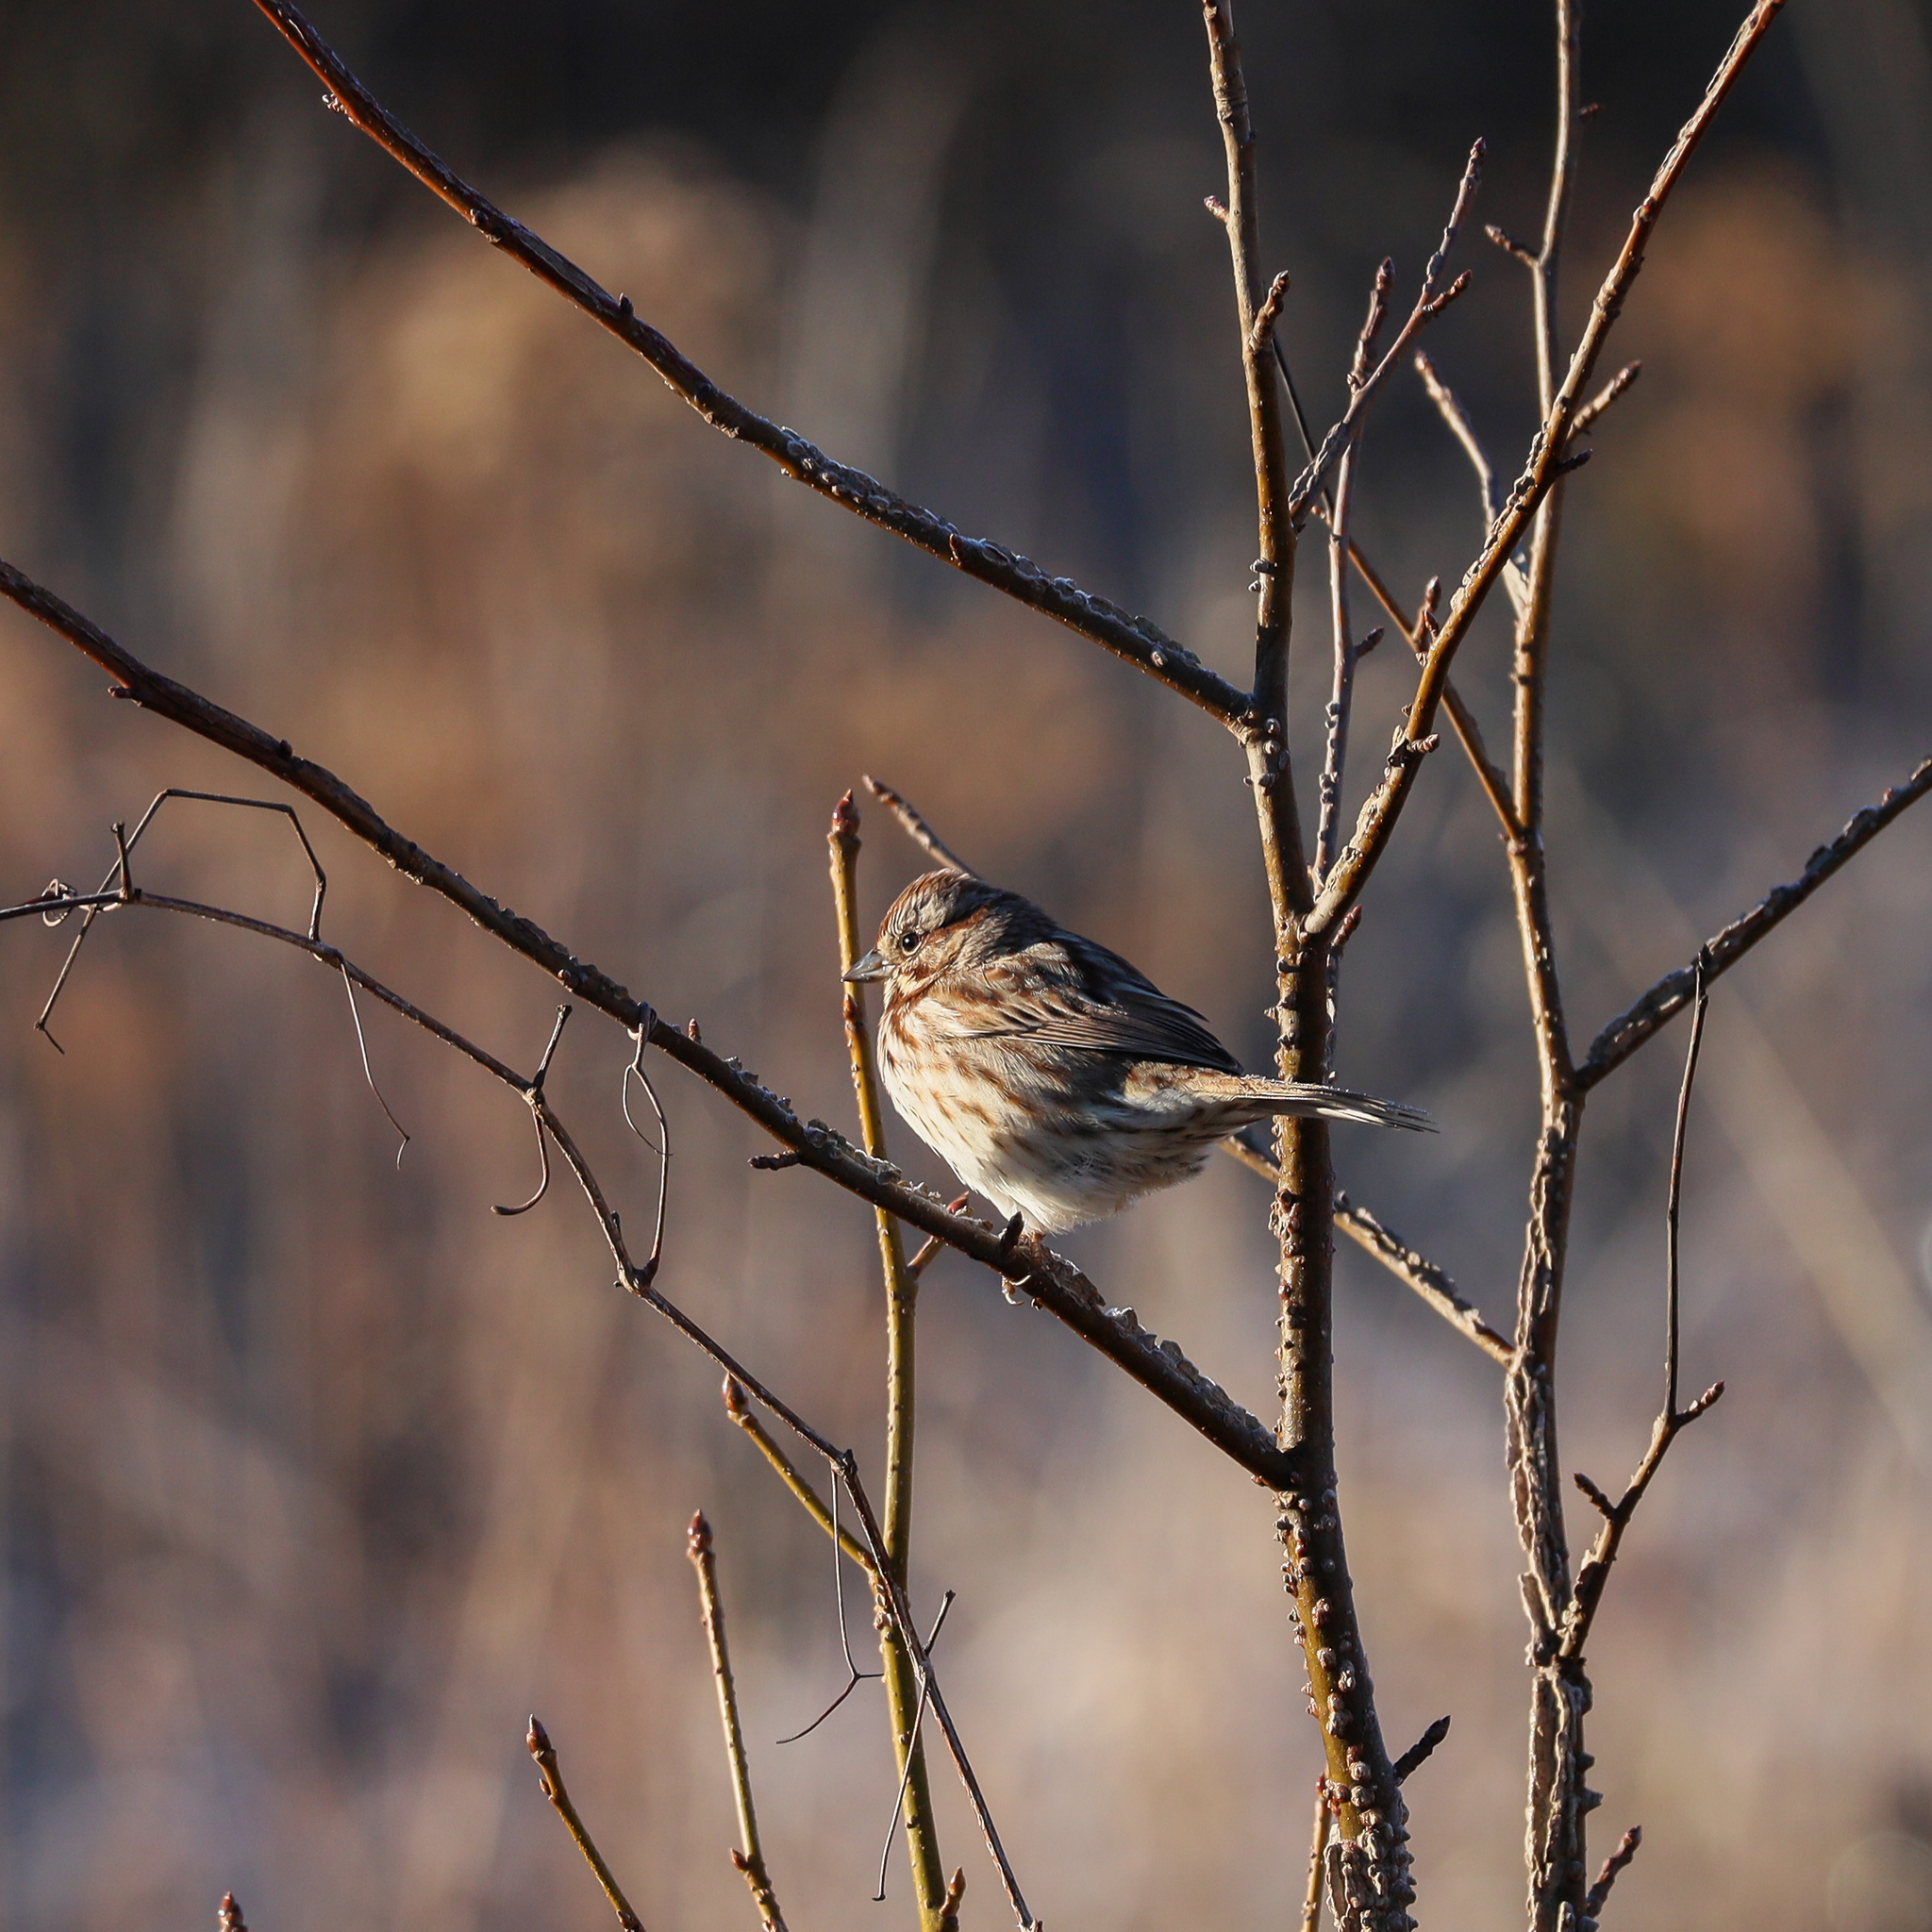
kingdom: Animalia
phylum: Chordata
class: Aves
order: Passeriformes
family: Passerellidae
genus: Melospiza
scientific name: Melospiza melodia
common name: Song sparrow
